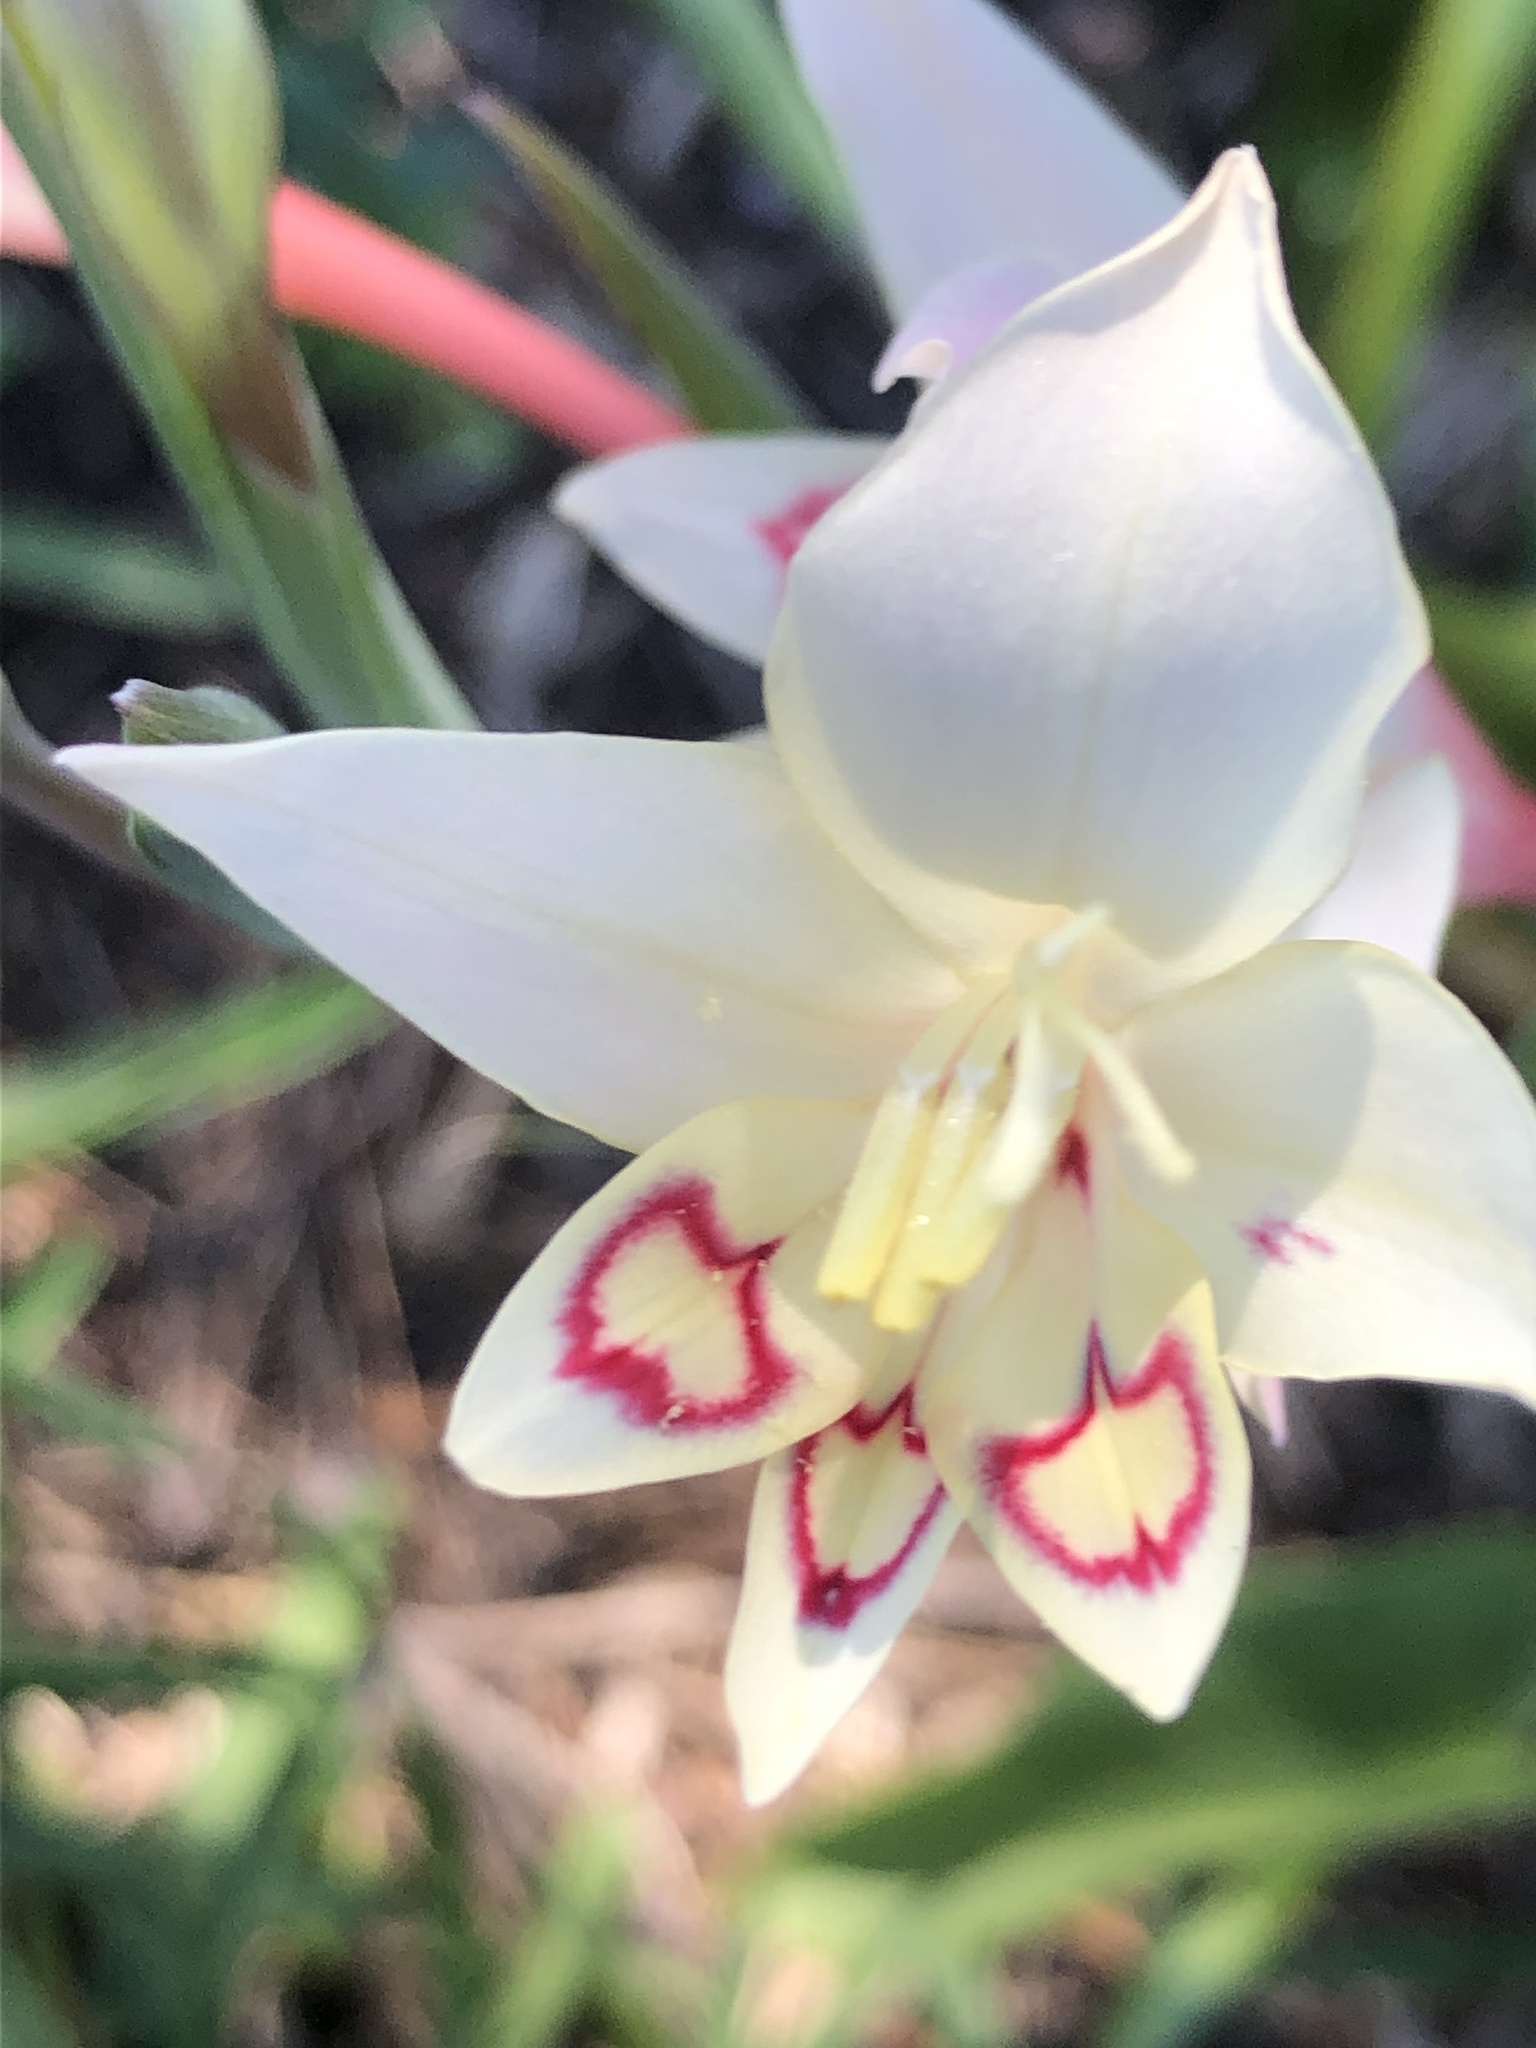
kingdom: Plantae
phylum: Tracheophyta
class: Liliopsida
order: Asparagales
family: Iridaceae
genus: Gladiolus
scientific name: Gladiolus angustus
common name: Painted-lady
